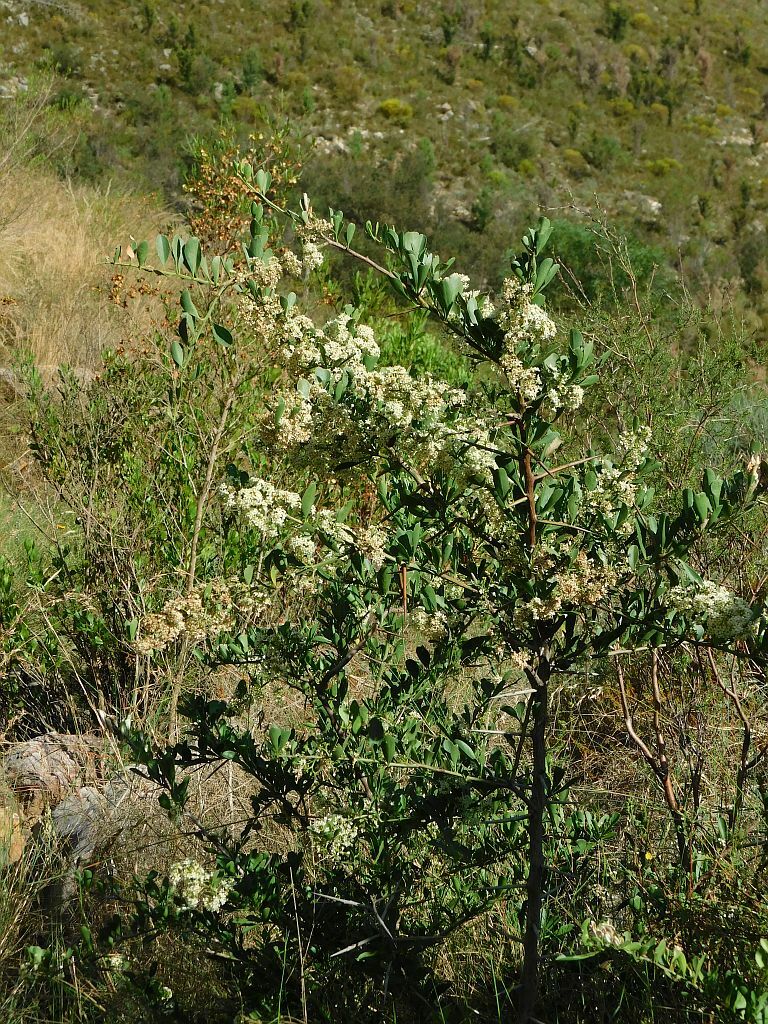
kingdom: Plantae
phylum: Tracheophyta
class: Magnoliopsida
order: Celastrales
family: Celastraceae
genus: Gymnosporia
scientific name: Gymnosporia buxifolia
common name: Common spike-thorn
